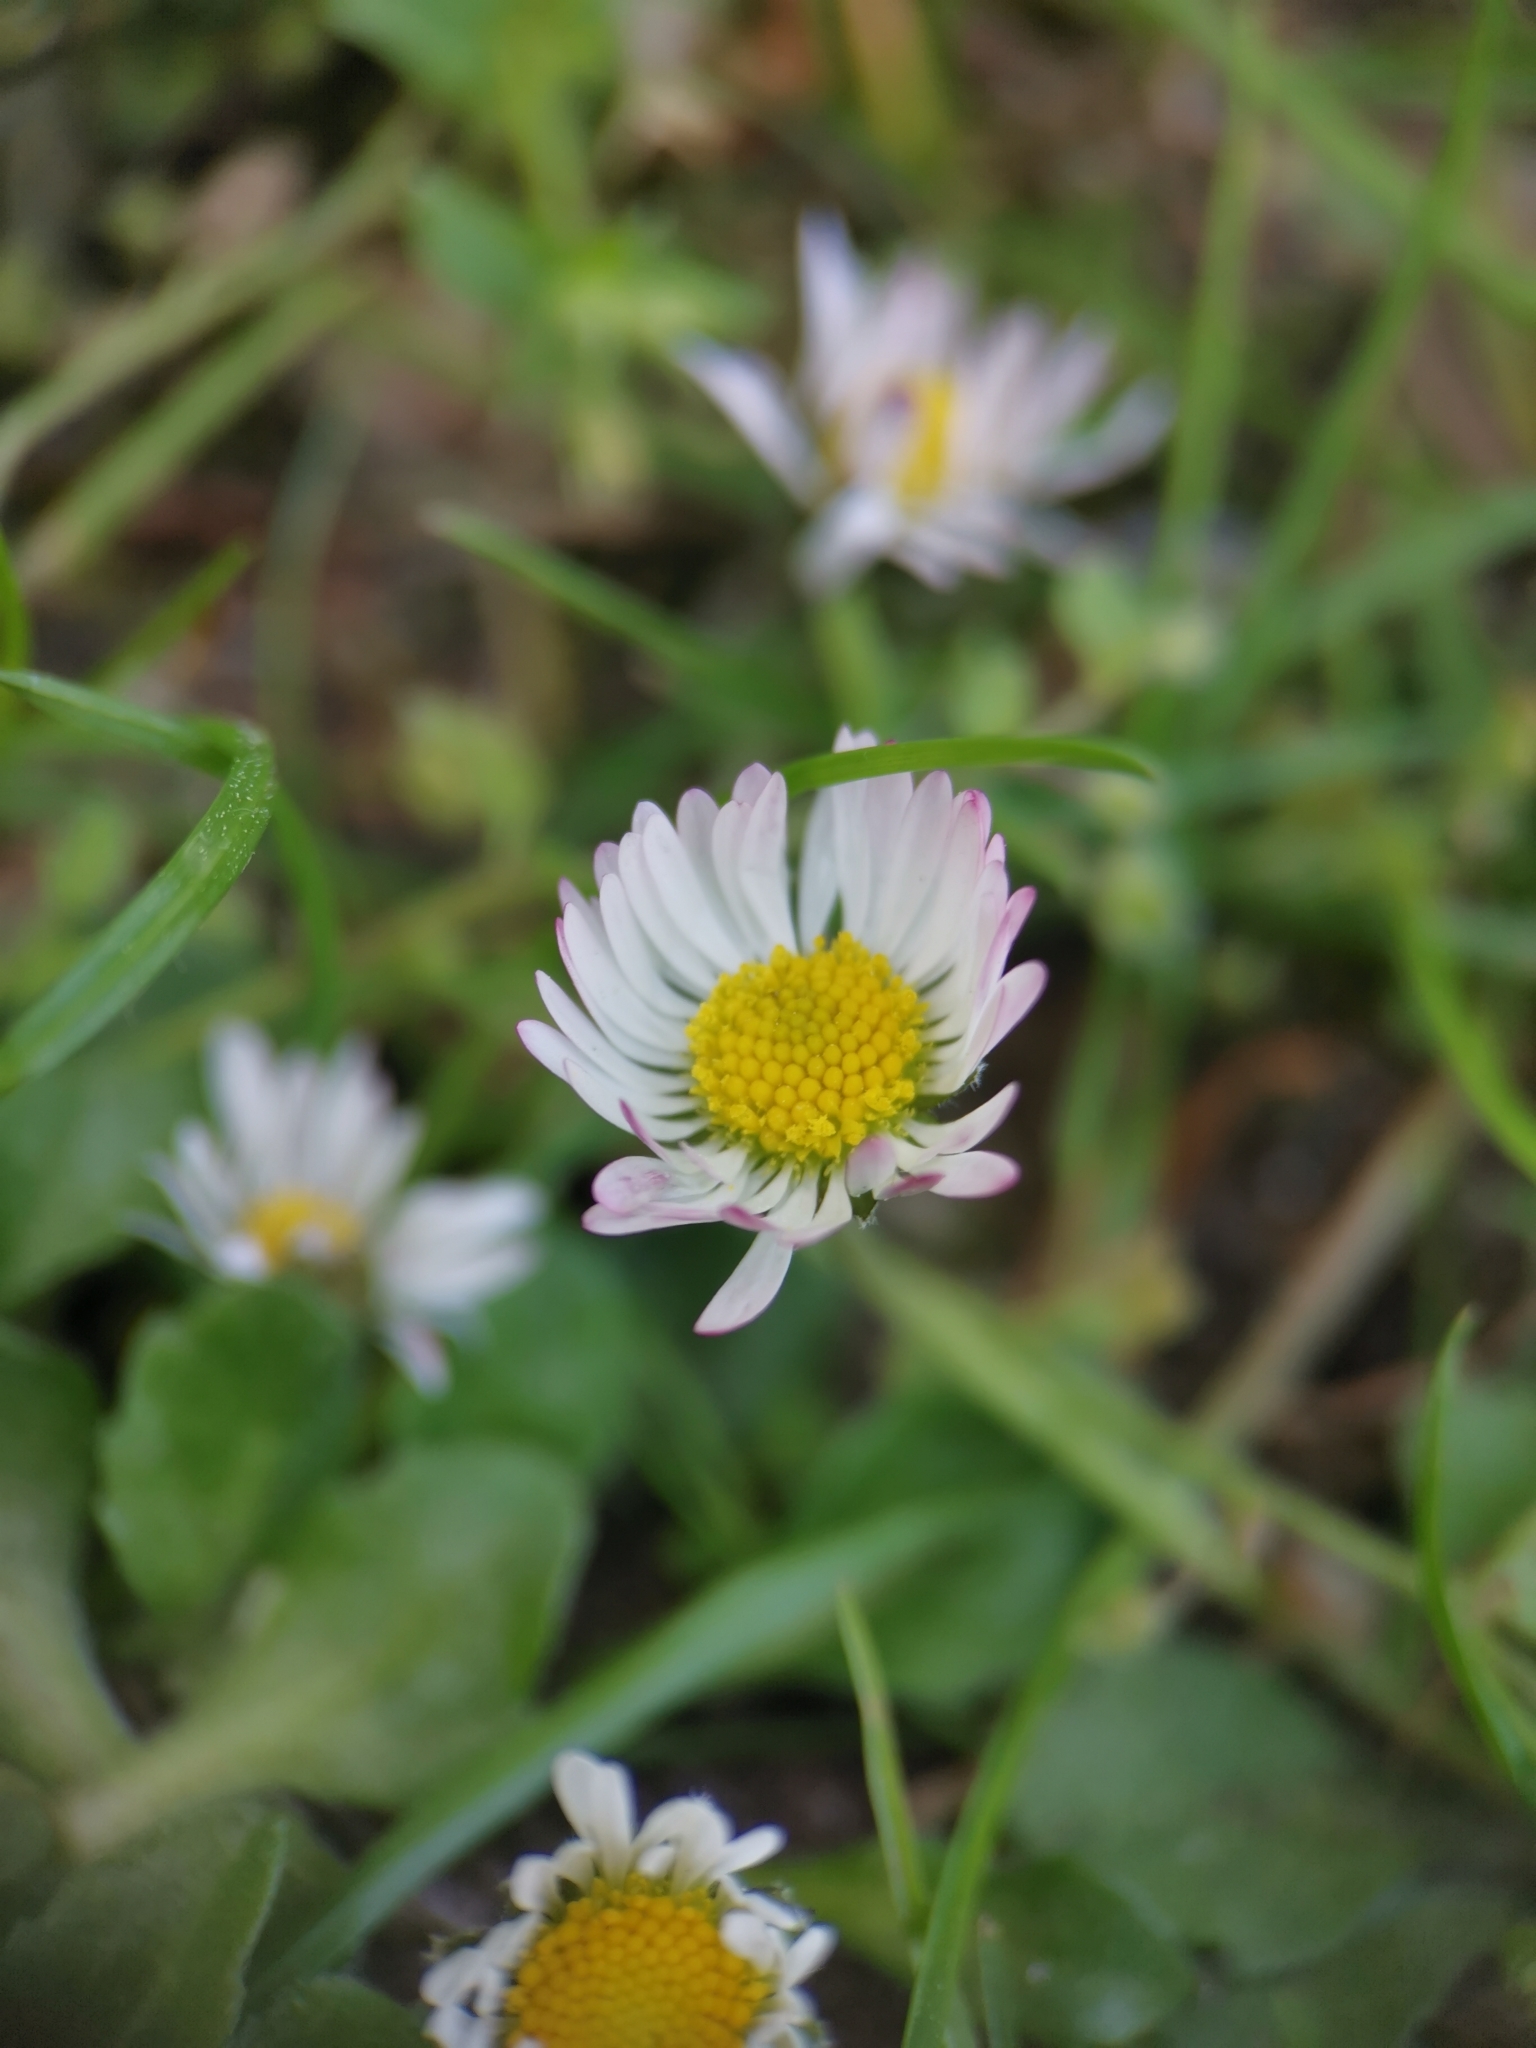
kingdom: Plantae
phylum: Tracheophyta
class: Magnoliopsida
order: Asterales
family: Asteraceae
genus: Bellis
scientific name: Bellis perennis
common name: Lawndaisy
